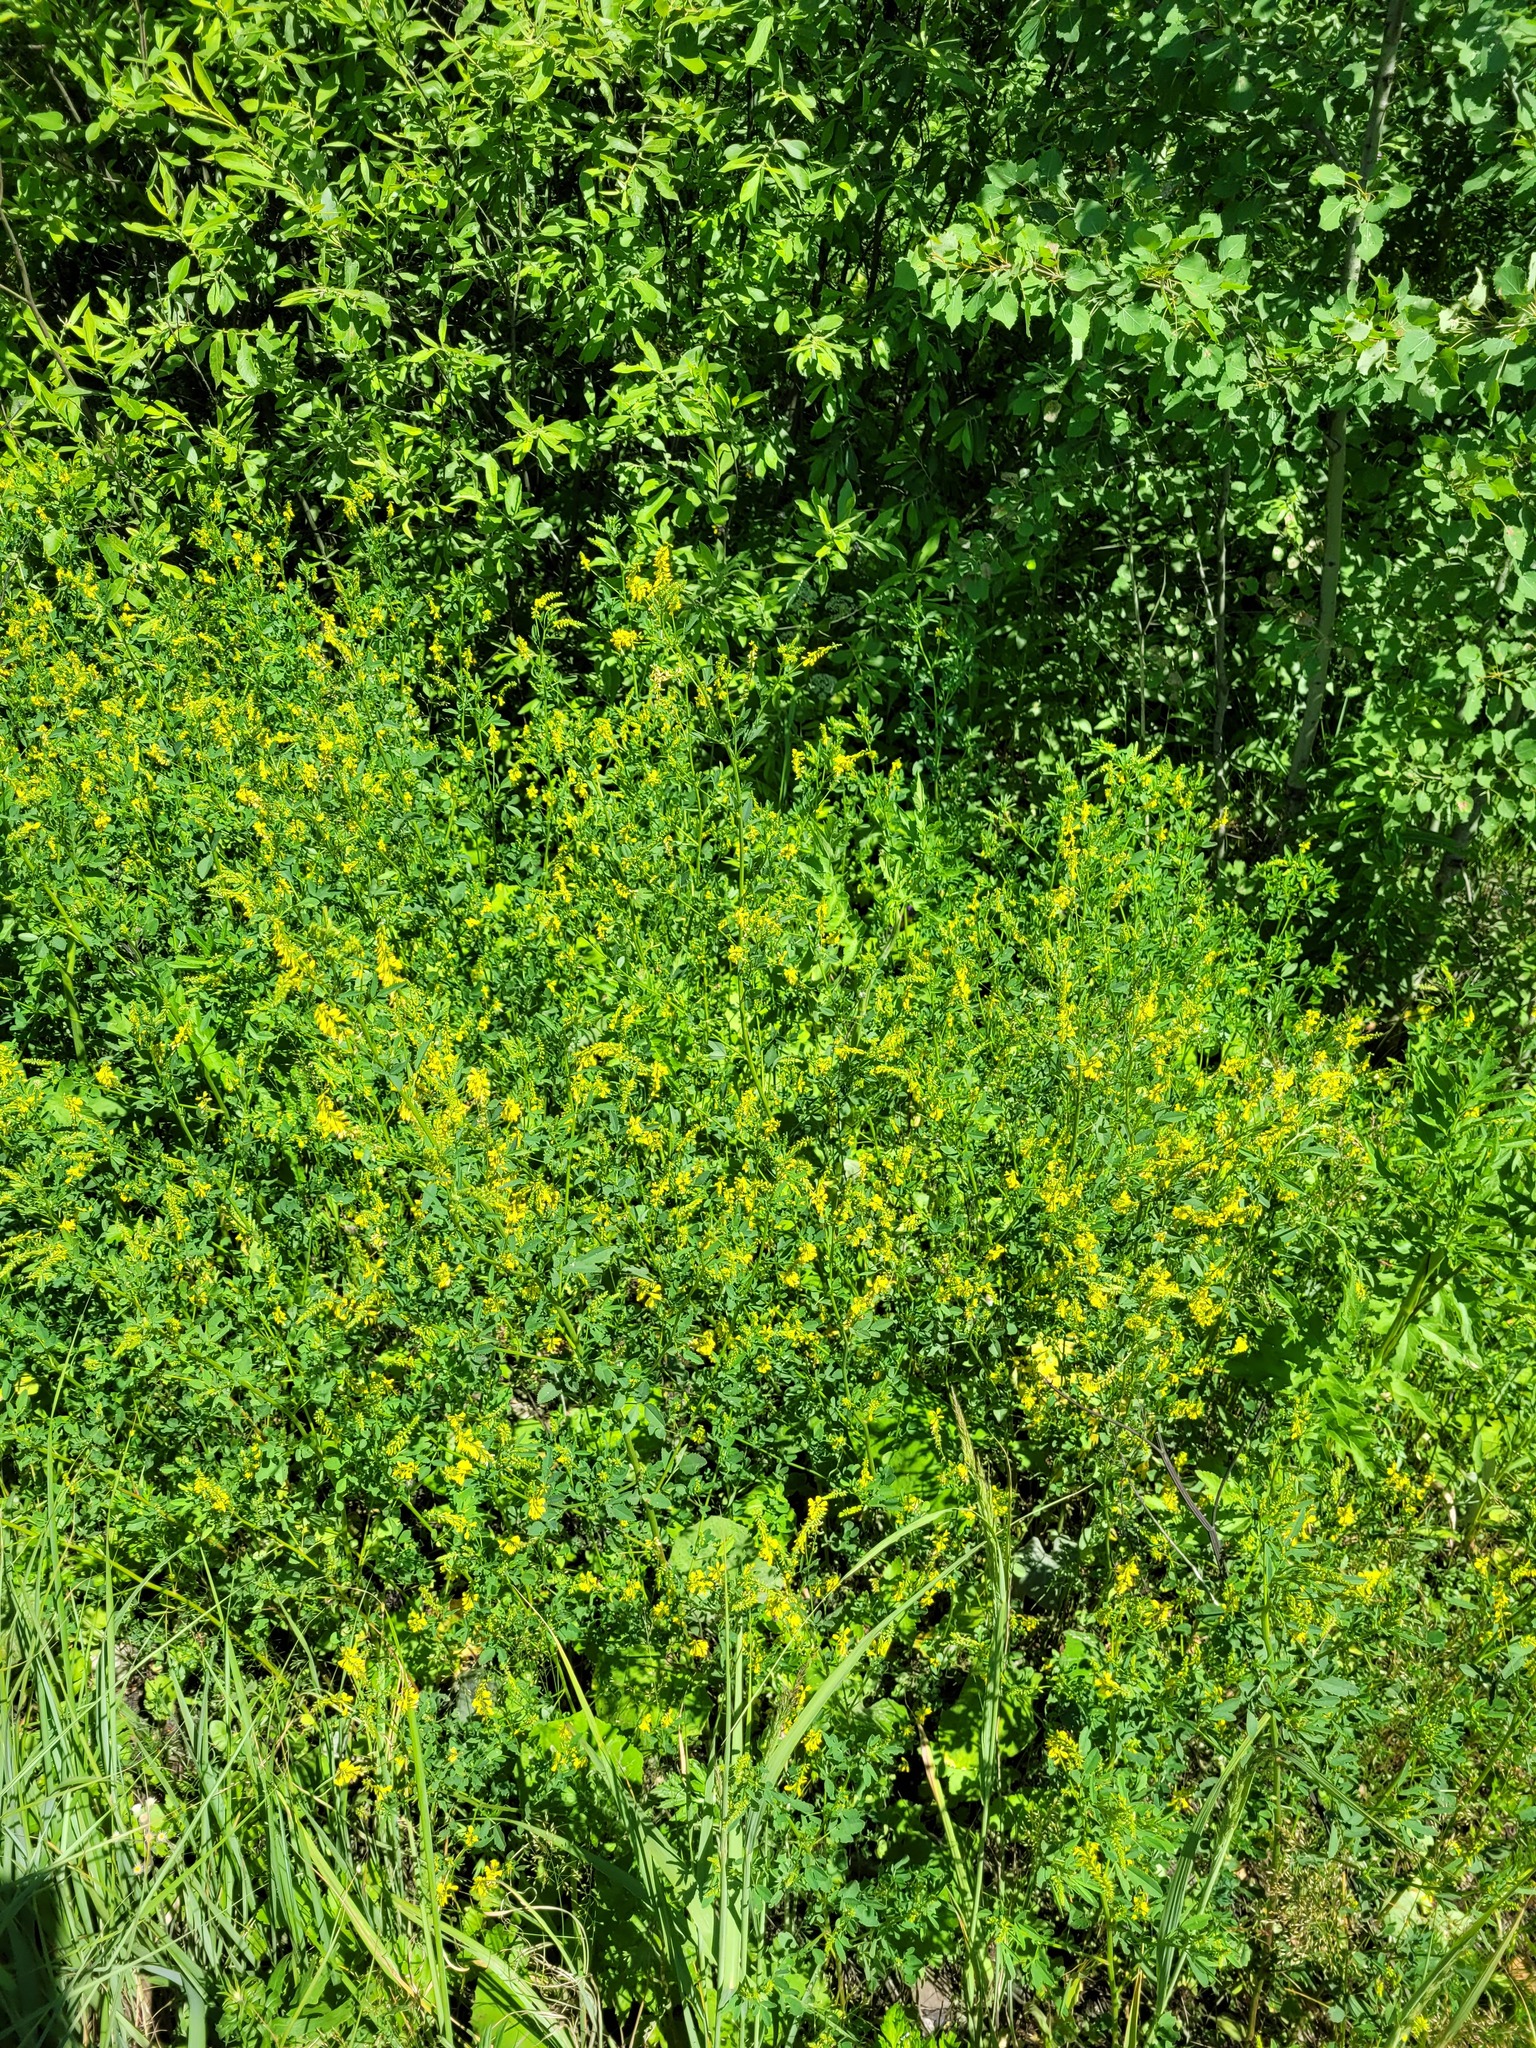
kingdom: Plantae
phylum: Tracheophyta
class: Magnoliopsida
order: Fabales
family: Fabaceae
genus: Melilotus
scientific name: Melilotus officinalis
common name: Sweetclover
